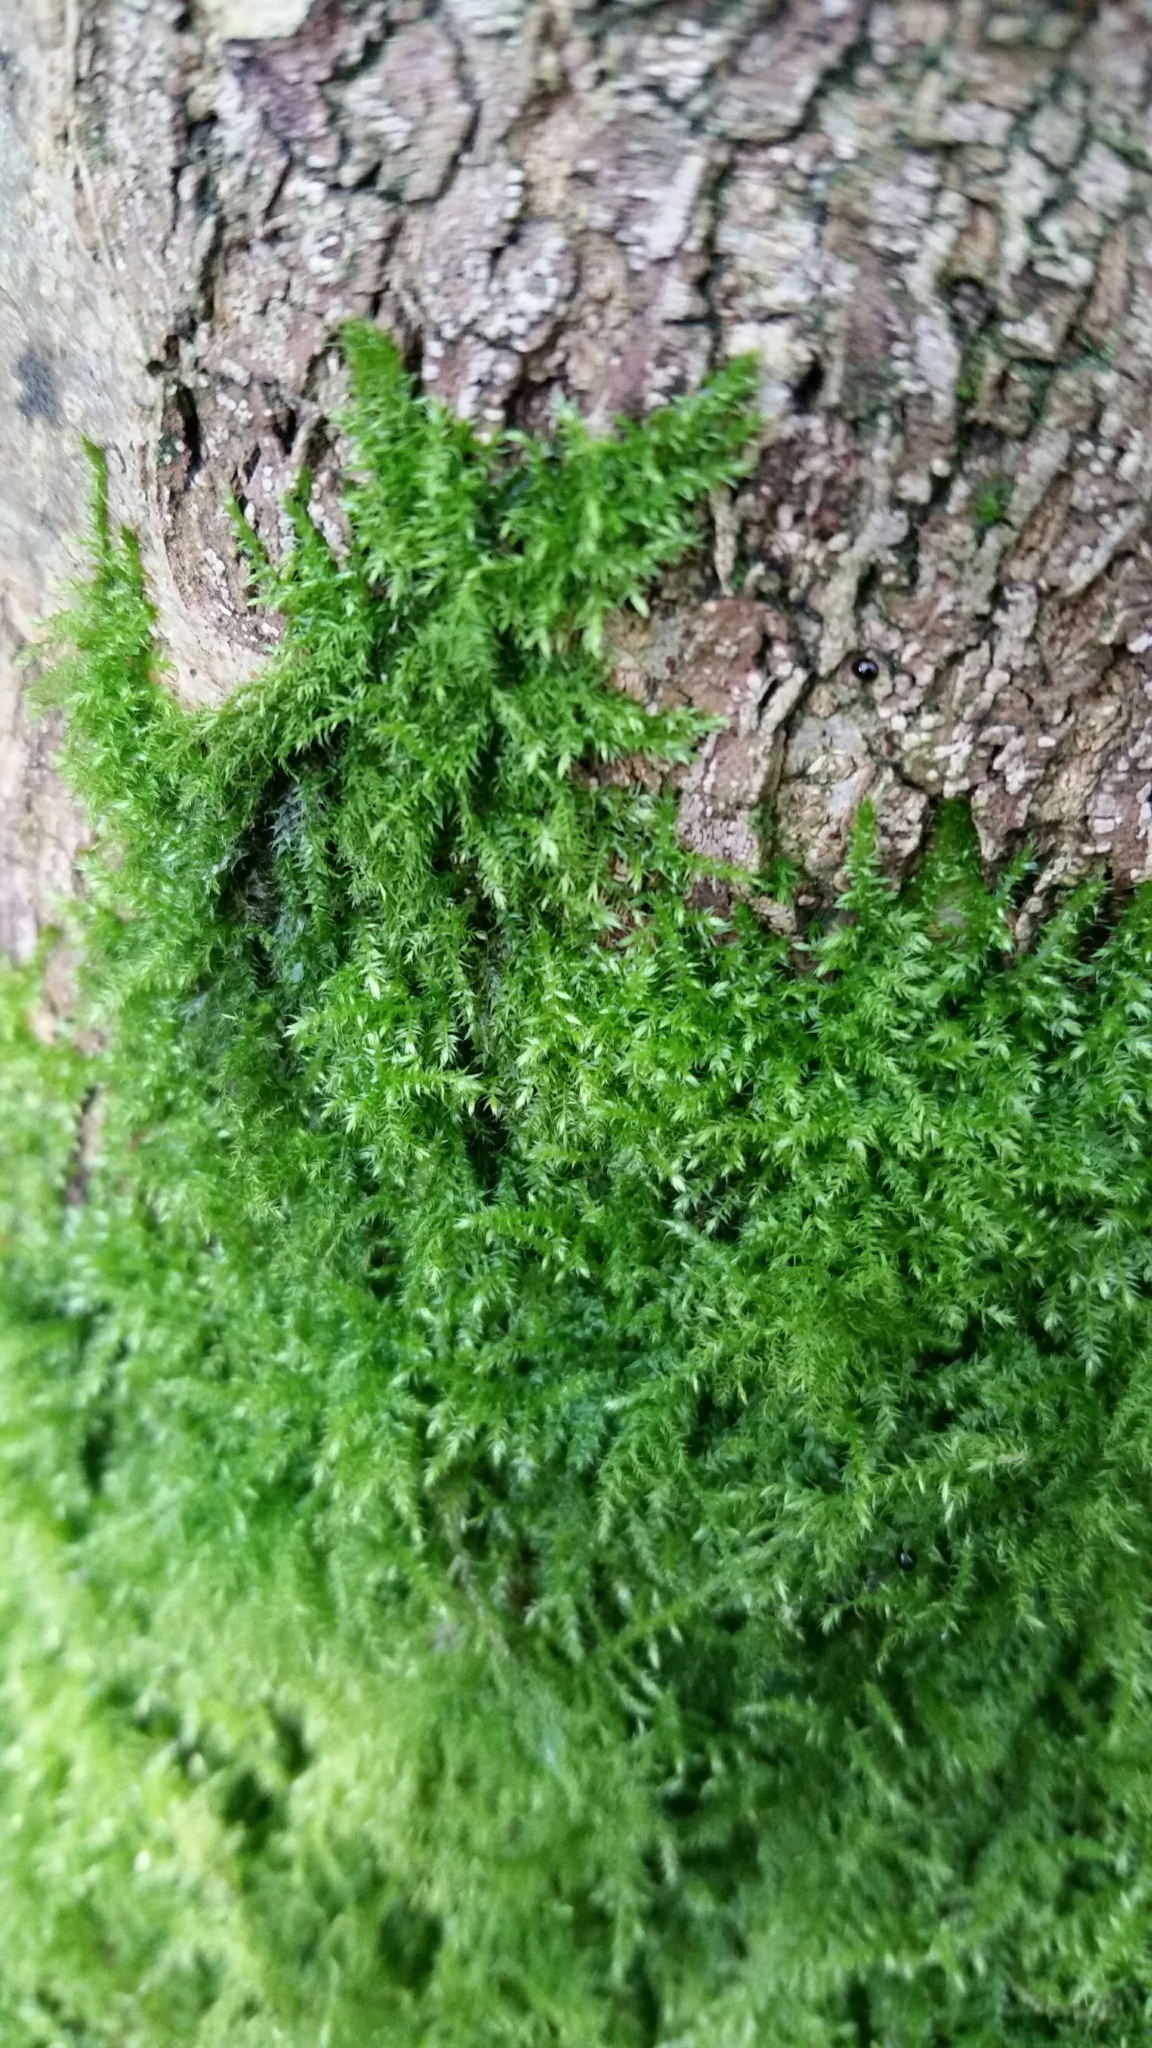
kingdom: Plantae
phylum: Bryophyta
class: Bryopsida
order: Hypnales
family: Brachytheciaceae
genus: Kindbergia
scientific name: Kindbergia praelonga
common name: Slender beaked moss
